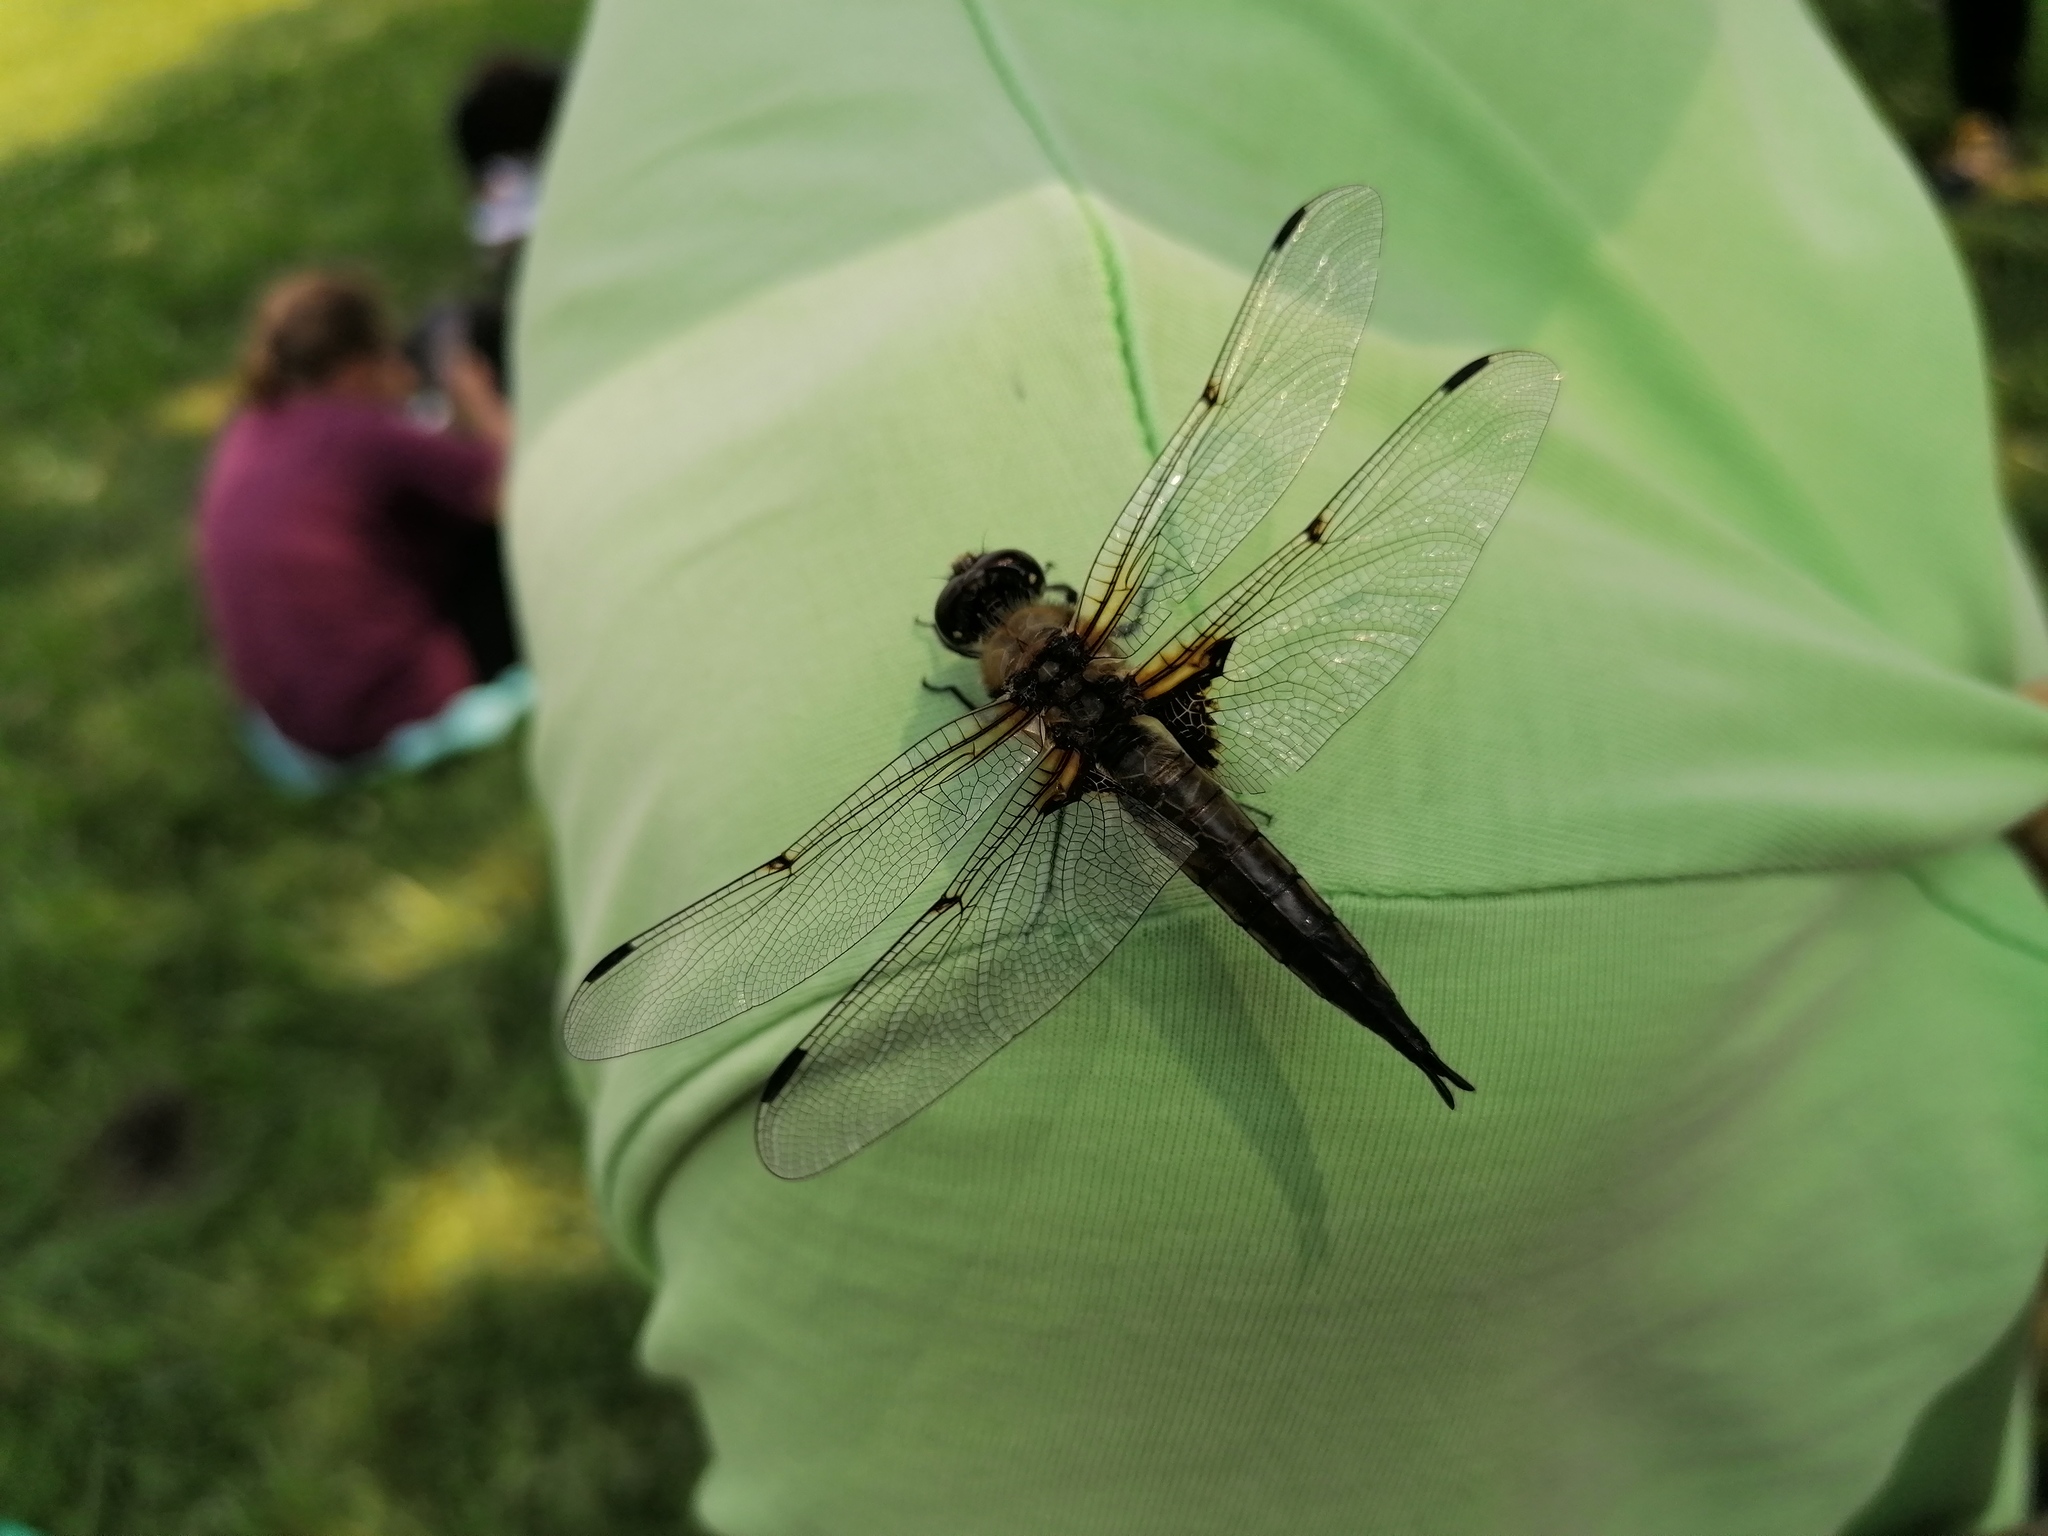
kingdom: Animalia
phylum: Arthropoda
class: Insecta
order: Odonata
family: Libellulidae
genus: Libellula
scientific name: Libellula quadrimaculata
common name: Four-spotted chaser
